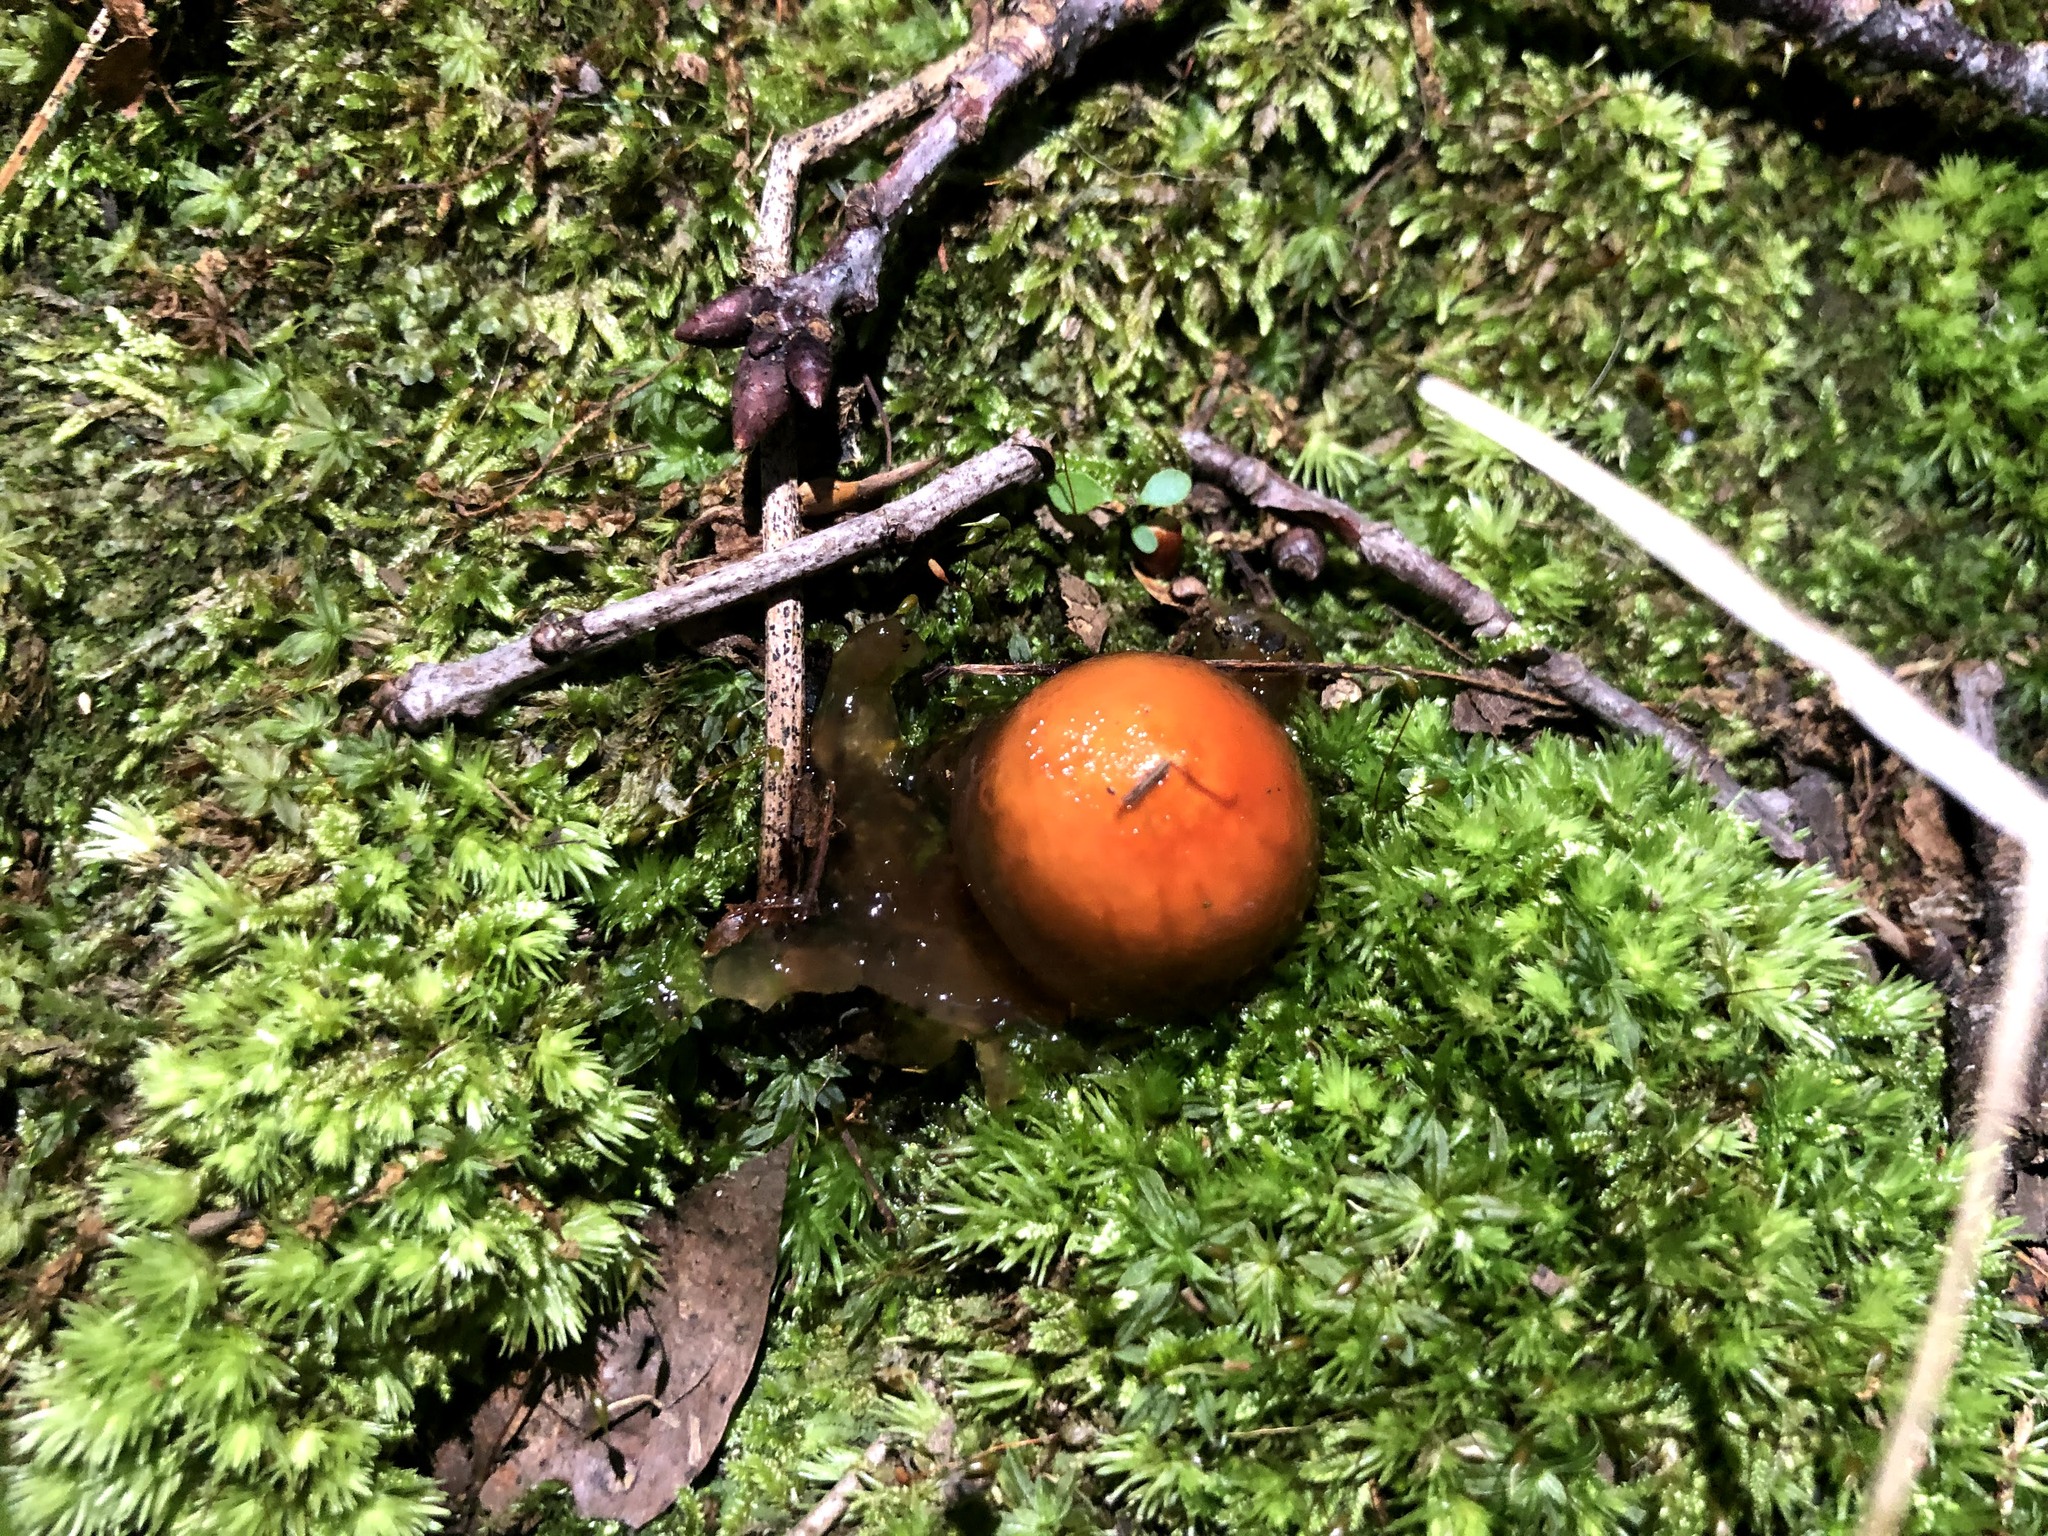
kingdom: Fungi
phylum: Basidiomycota
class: Agaricomycetes
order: Boletales
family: Calostomataceae
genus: Calostoma
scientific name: Calostoma cinnabarinum
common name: Stalked puffball-in-aspic
